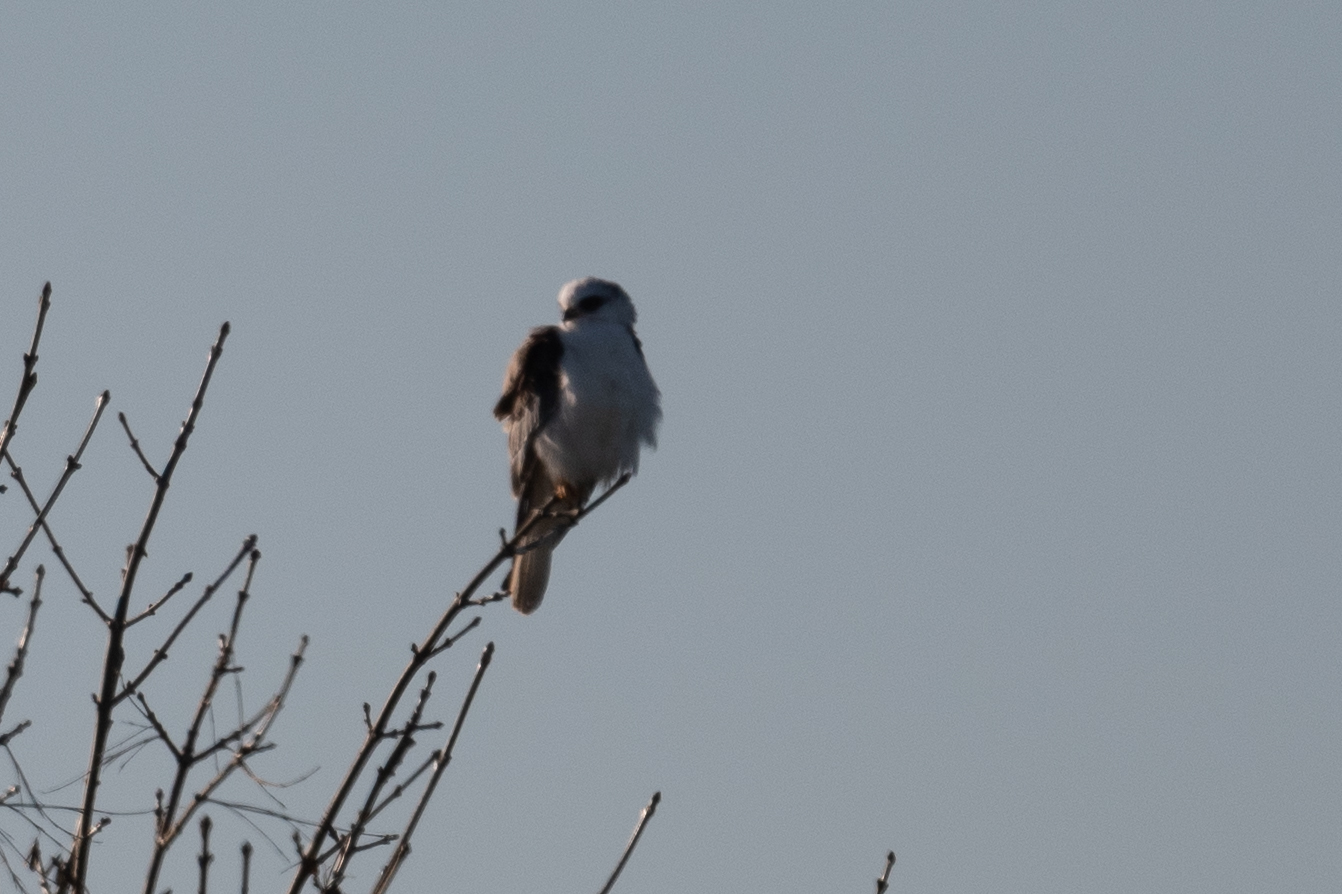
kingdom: Animalia
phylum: Chordata
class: Aves
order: Accipitriformes
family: Accipitridae
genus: Elanus
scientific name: Elanus leucurus
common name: White-tailed kite
